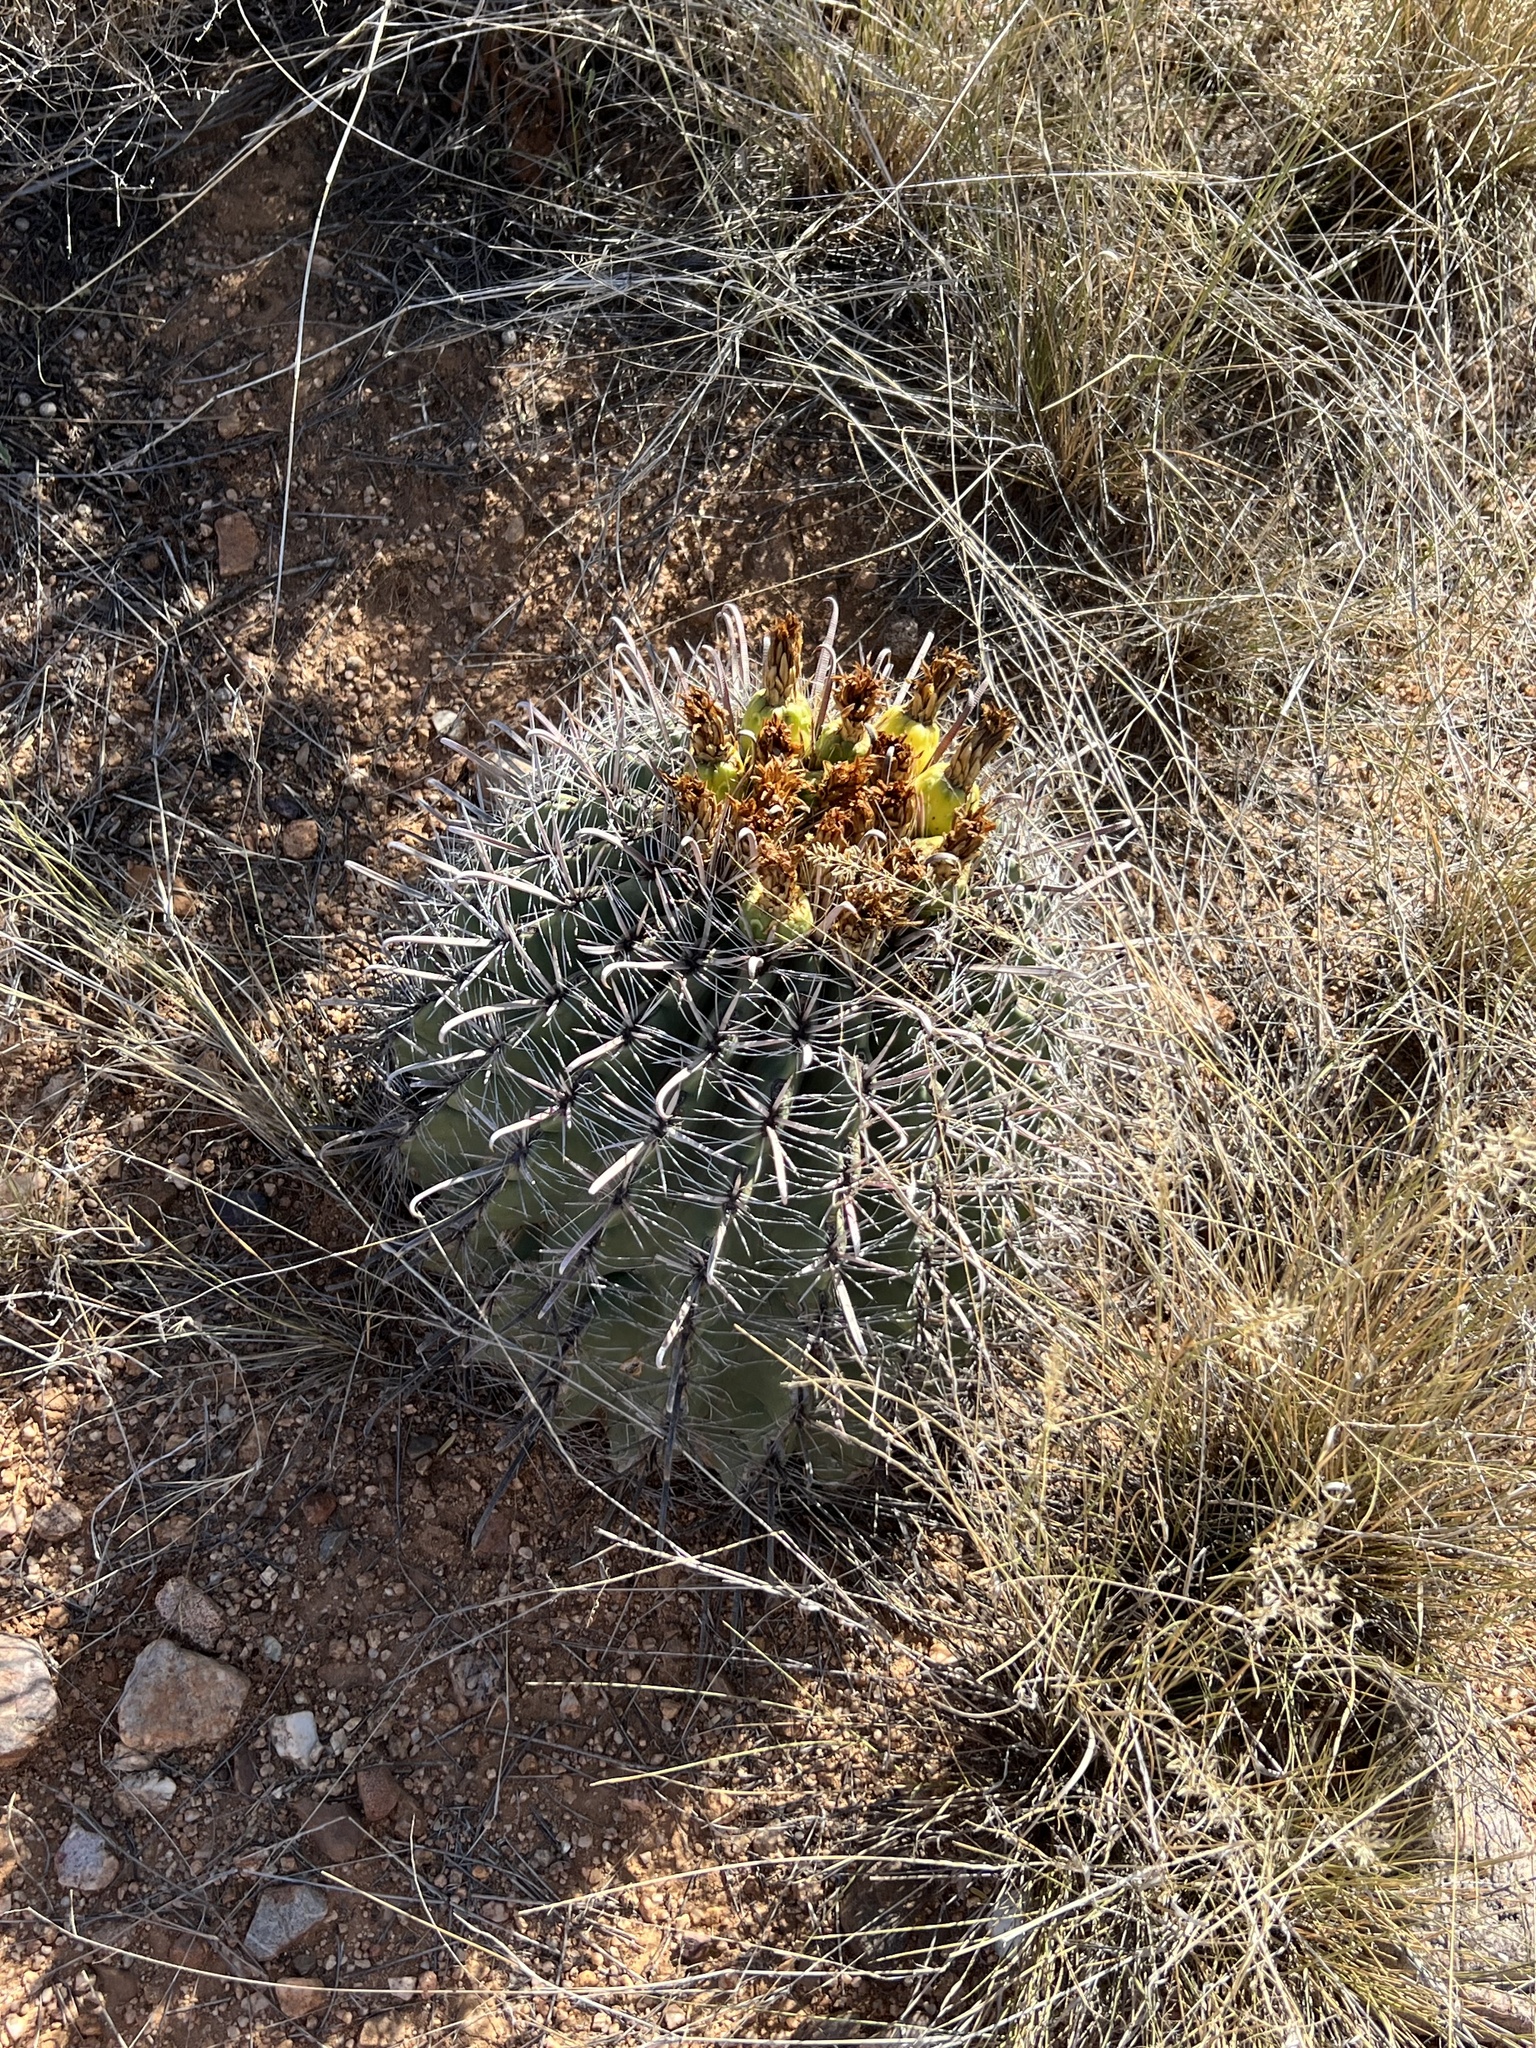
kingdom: Plantae
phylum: Tracheophyta
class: Magnoliopsida
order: Caryophyllales
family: Cactaceae
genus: Ferocactus
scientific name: Ferocactus wislizeni
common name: Candy barrel cactus
